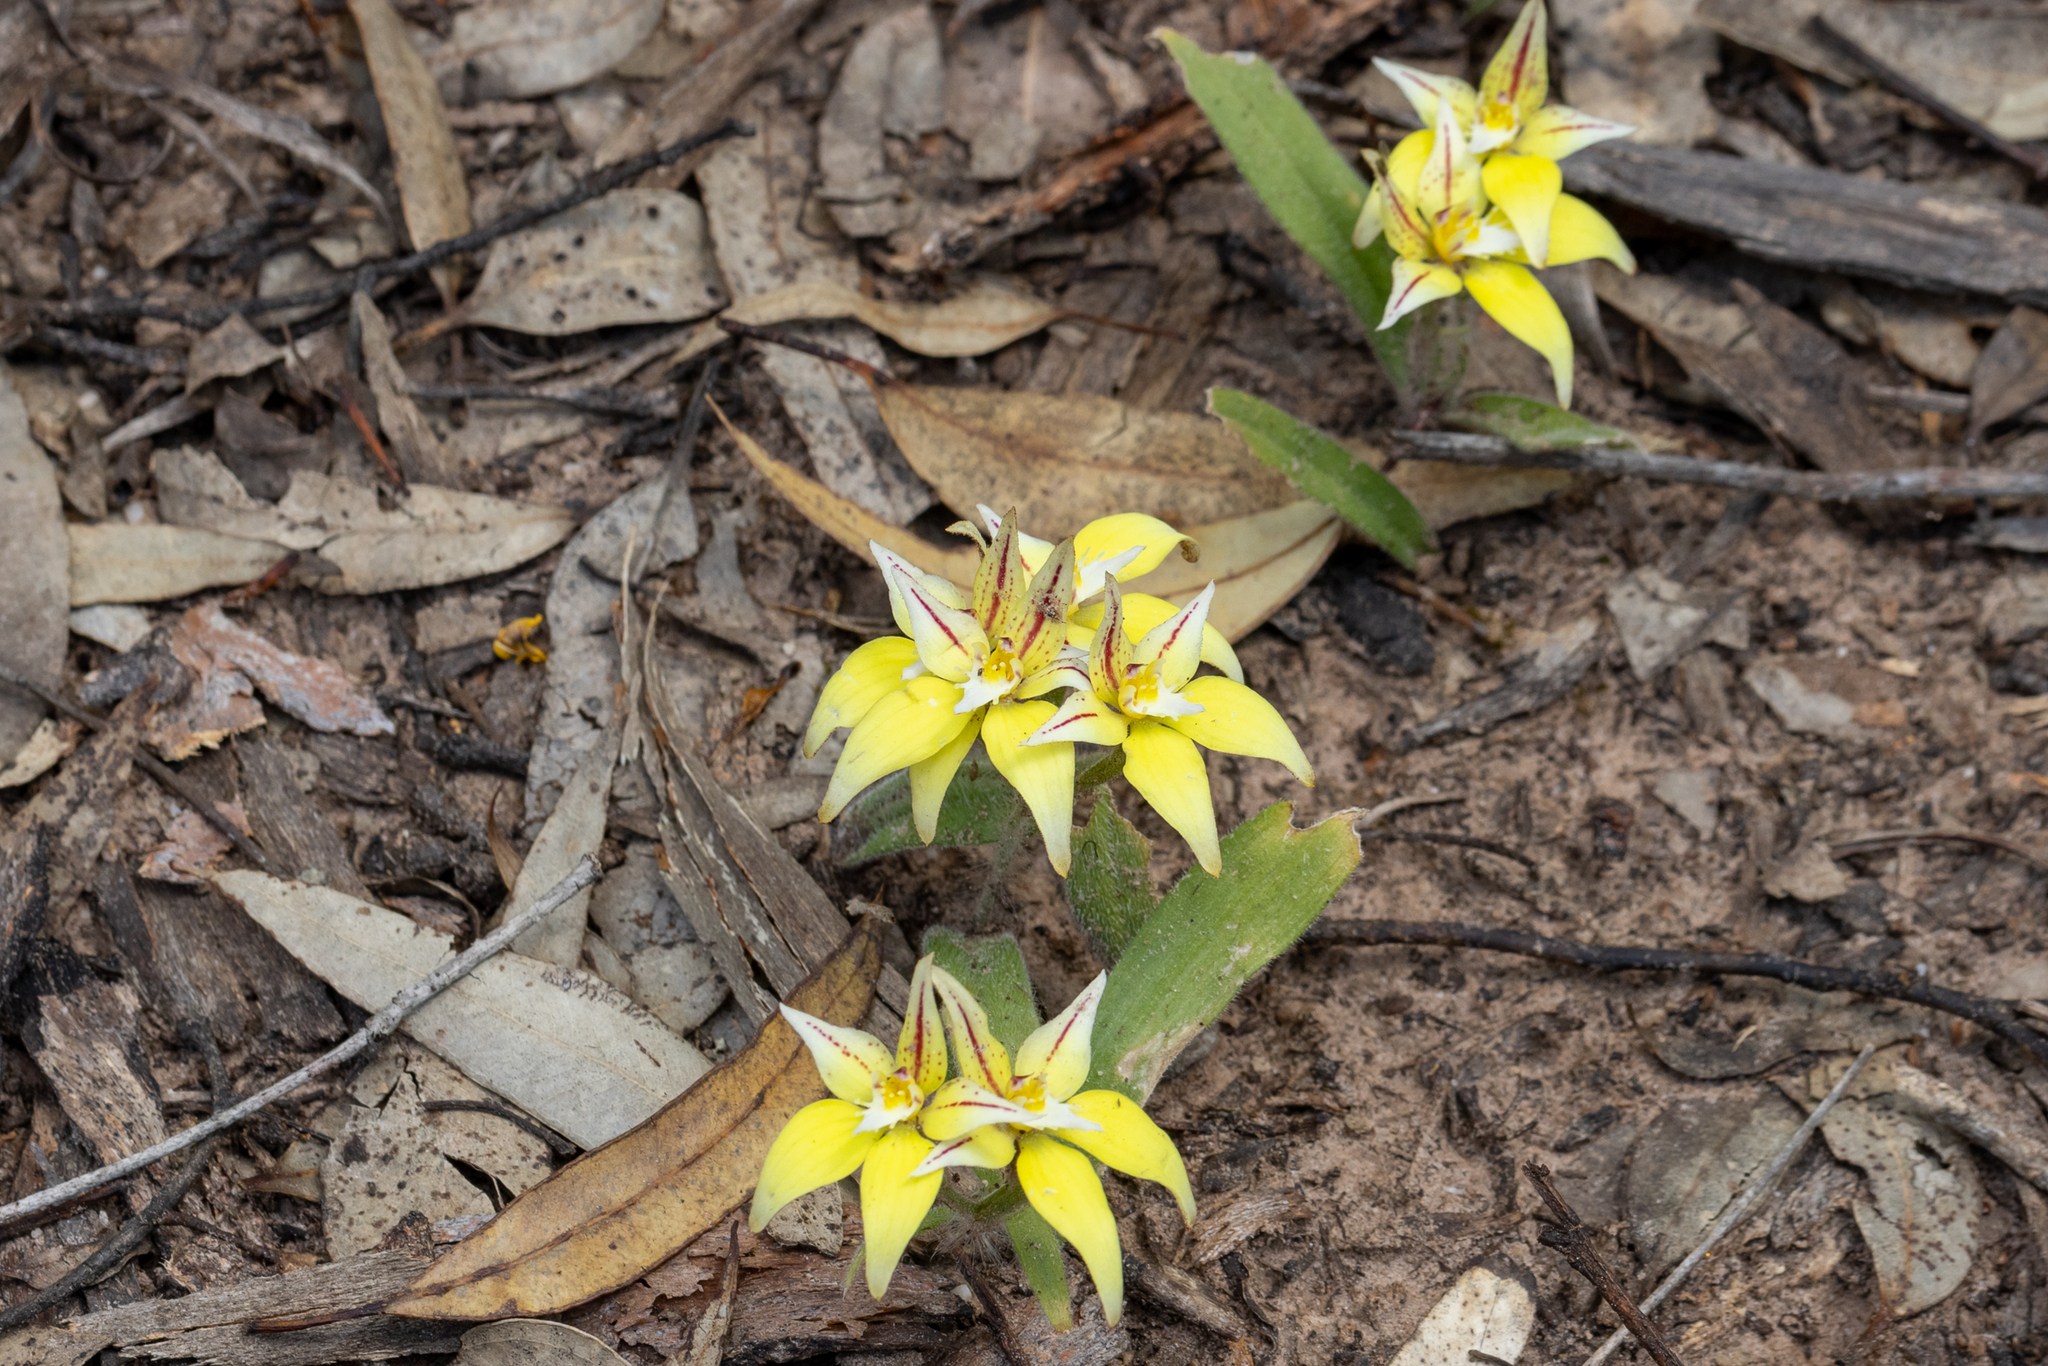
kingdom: Plantae
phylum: Tracheophyta
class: Liliopsida
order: Asparagales
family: Orchidaceae
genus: Caladenia
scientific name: Caladenia flava
